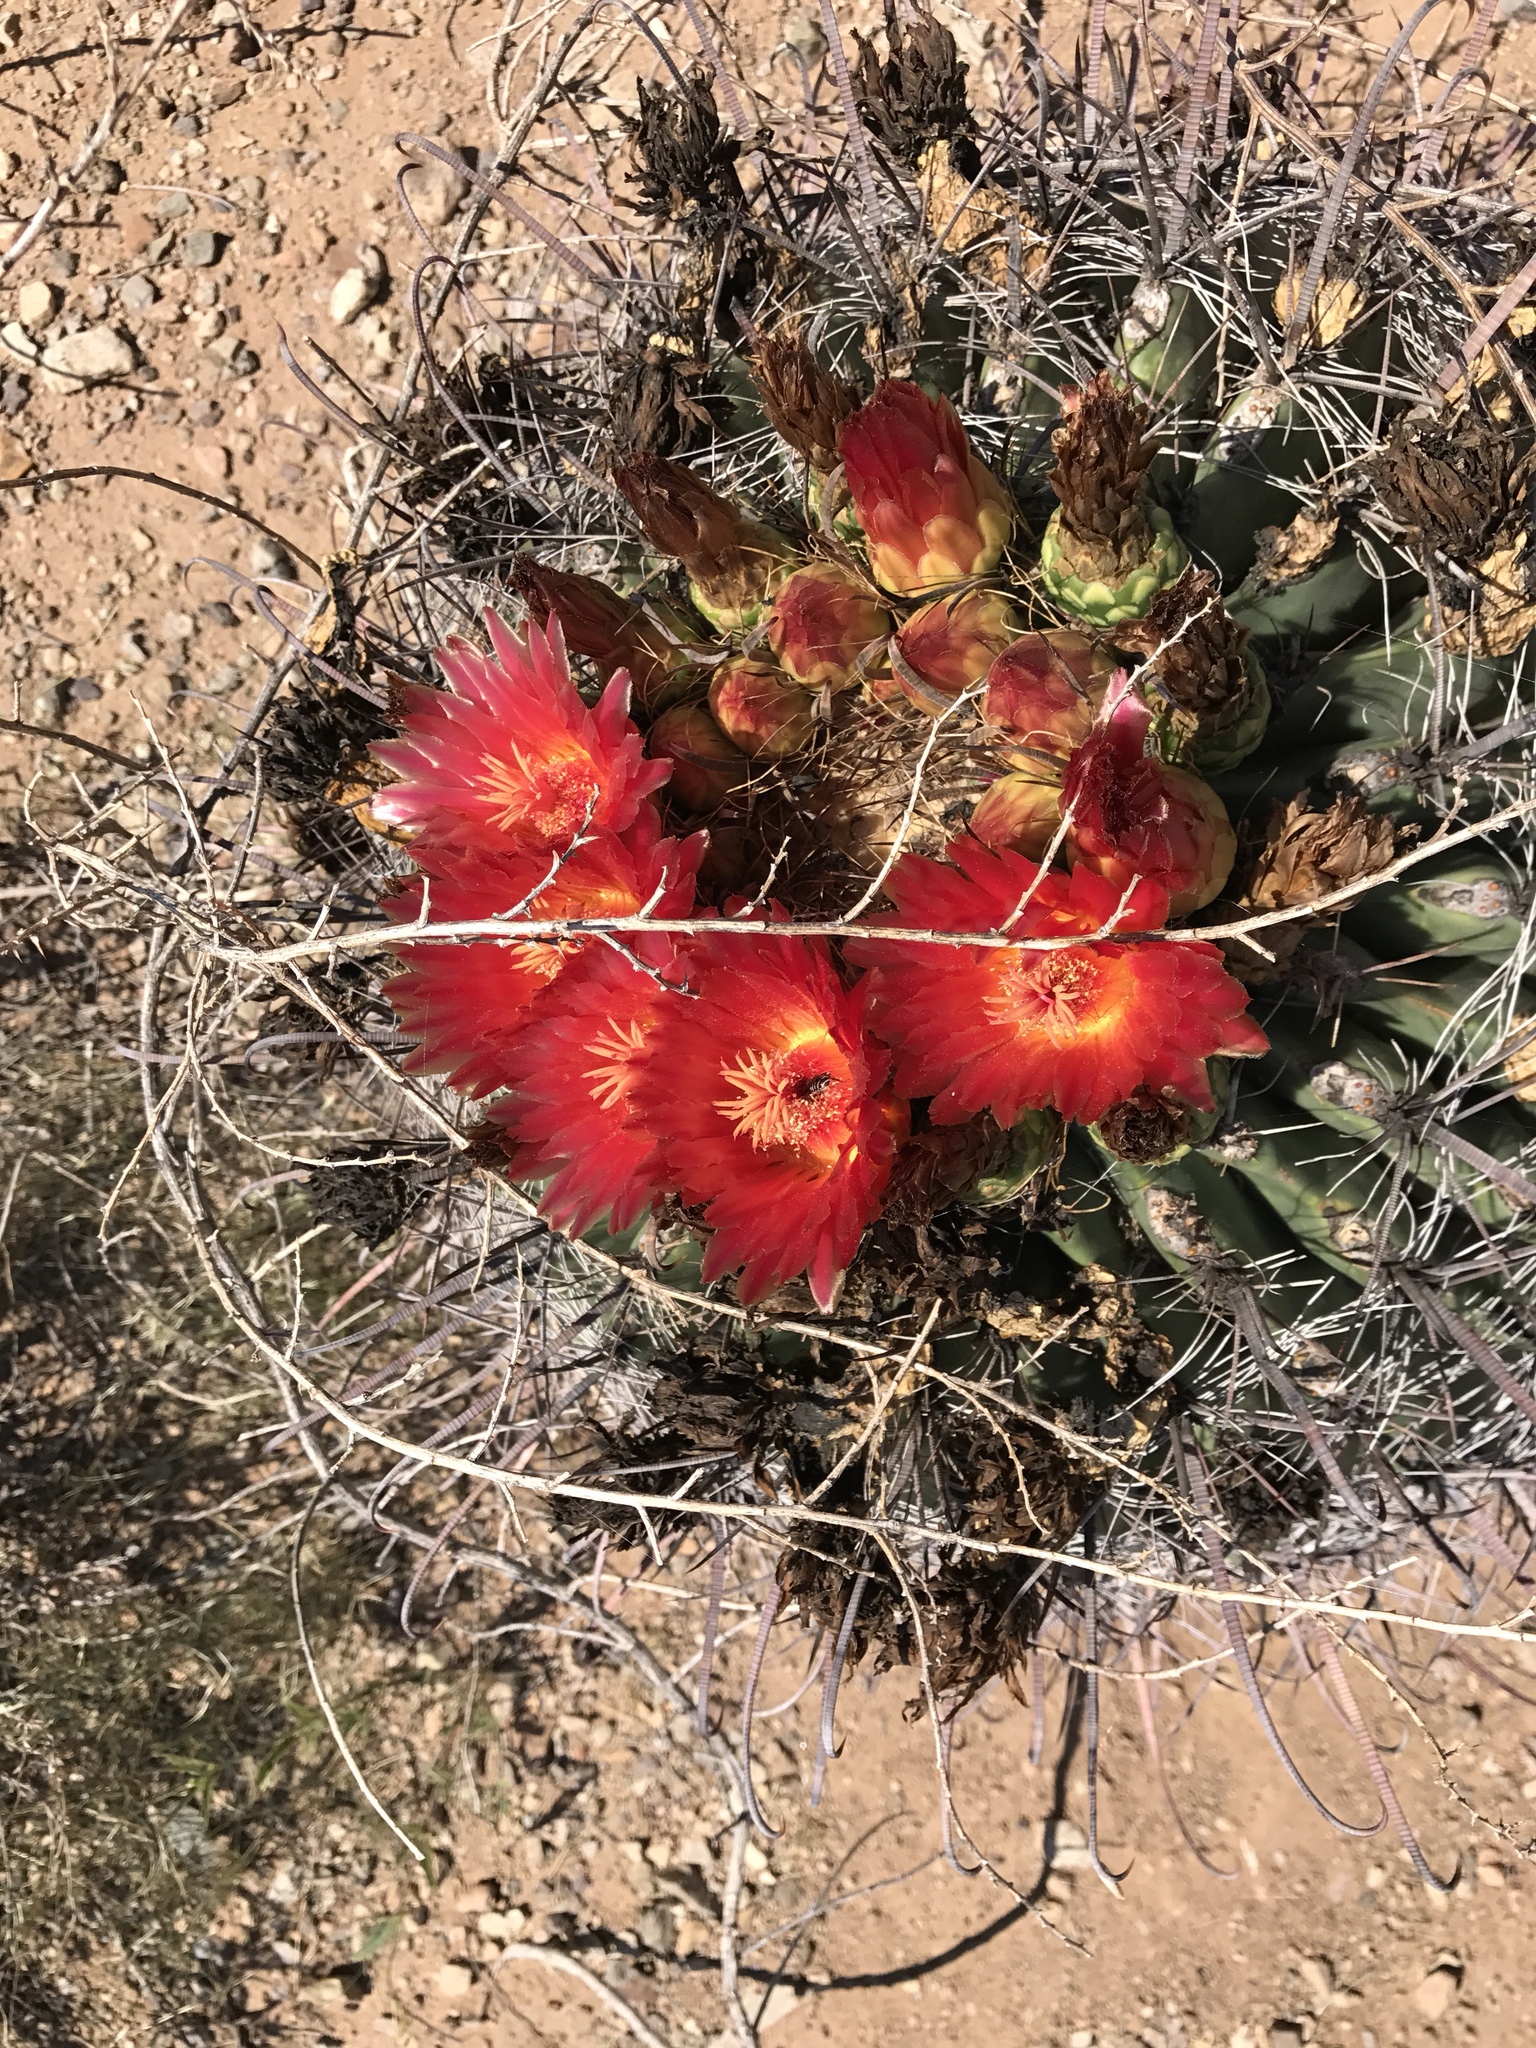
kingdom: Plantae
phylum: Tracheophyta
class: Magnoliopsida
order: Caryophyllales
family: Cactaceae
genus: Ferocactus
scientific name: Ferocactus wislizeni
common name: Candy barrel cactus
